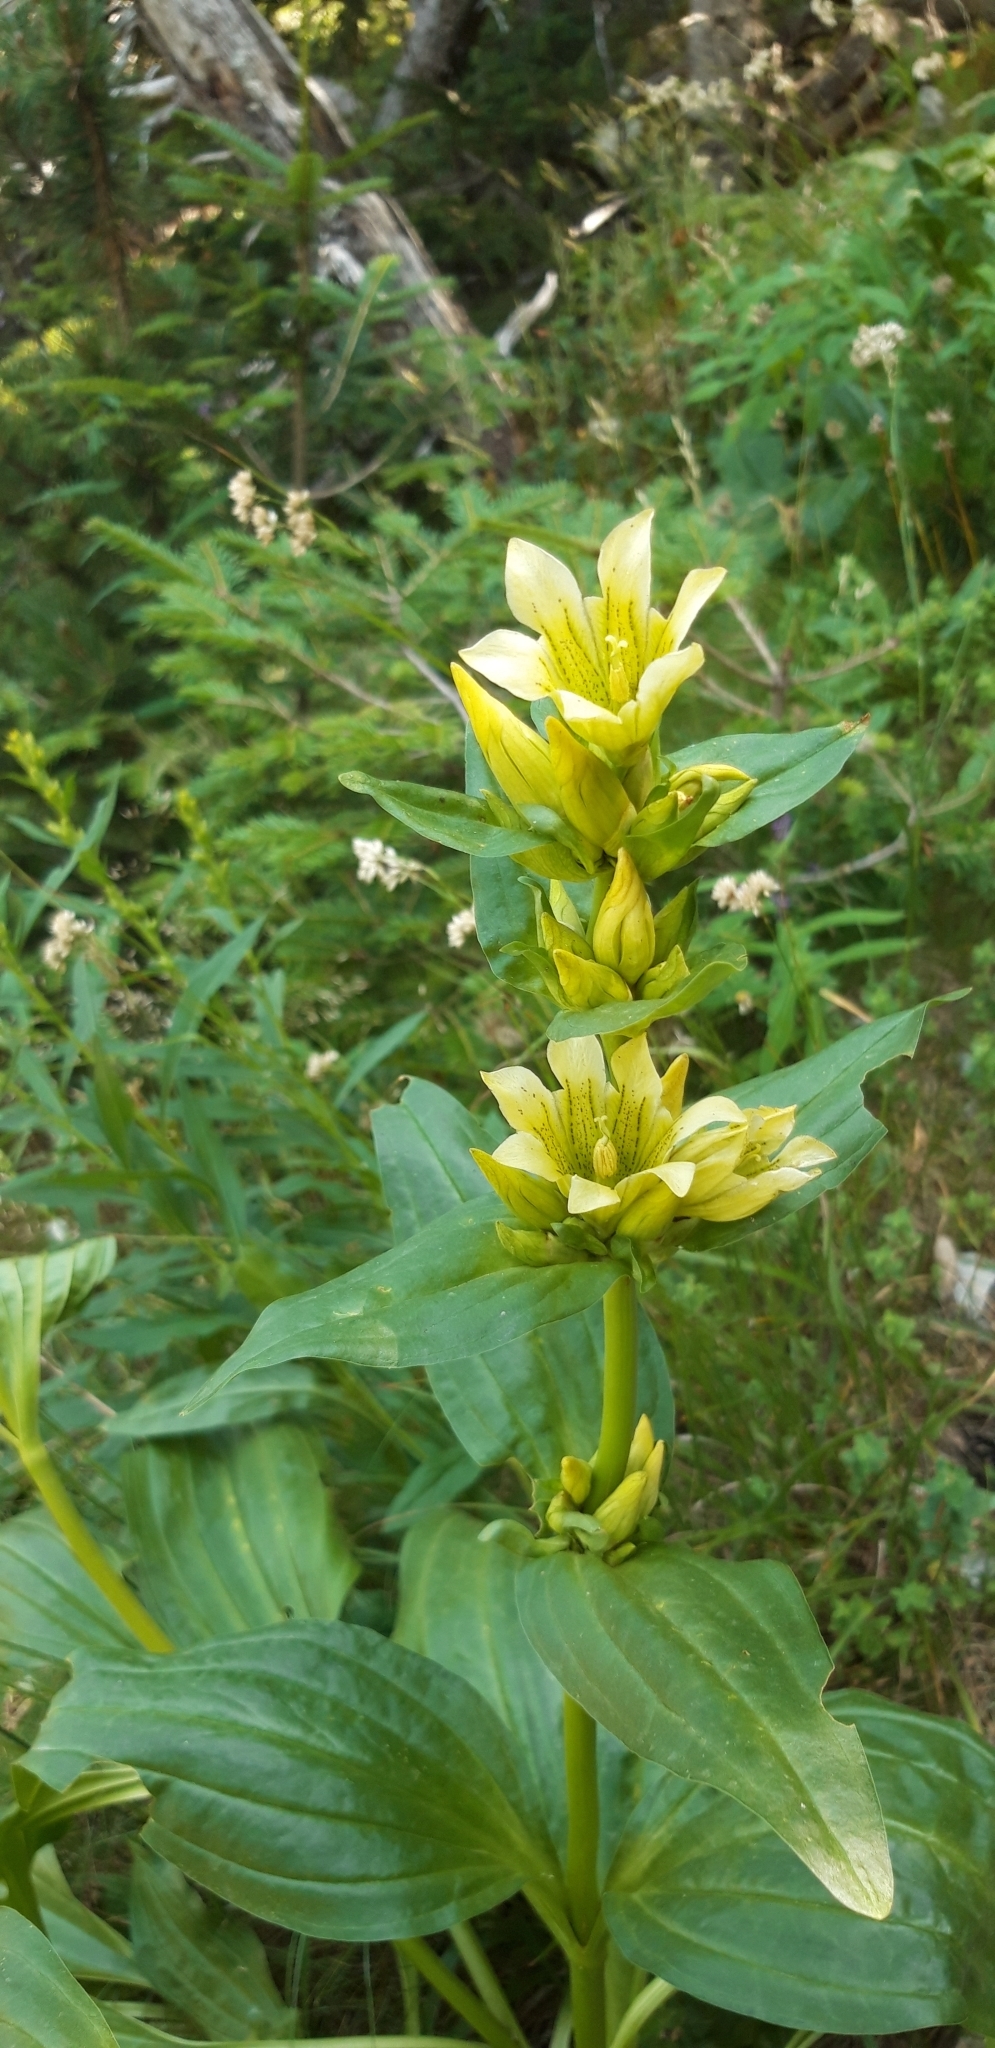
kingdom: Plantae
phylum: Tracheophyta
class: Magnoliopsida
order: Gentianales
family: Gentianaceae
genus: Gentiana
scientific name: Gentiana burseri
